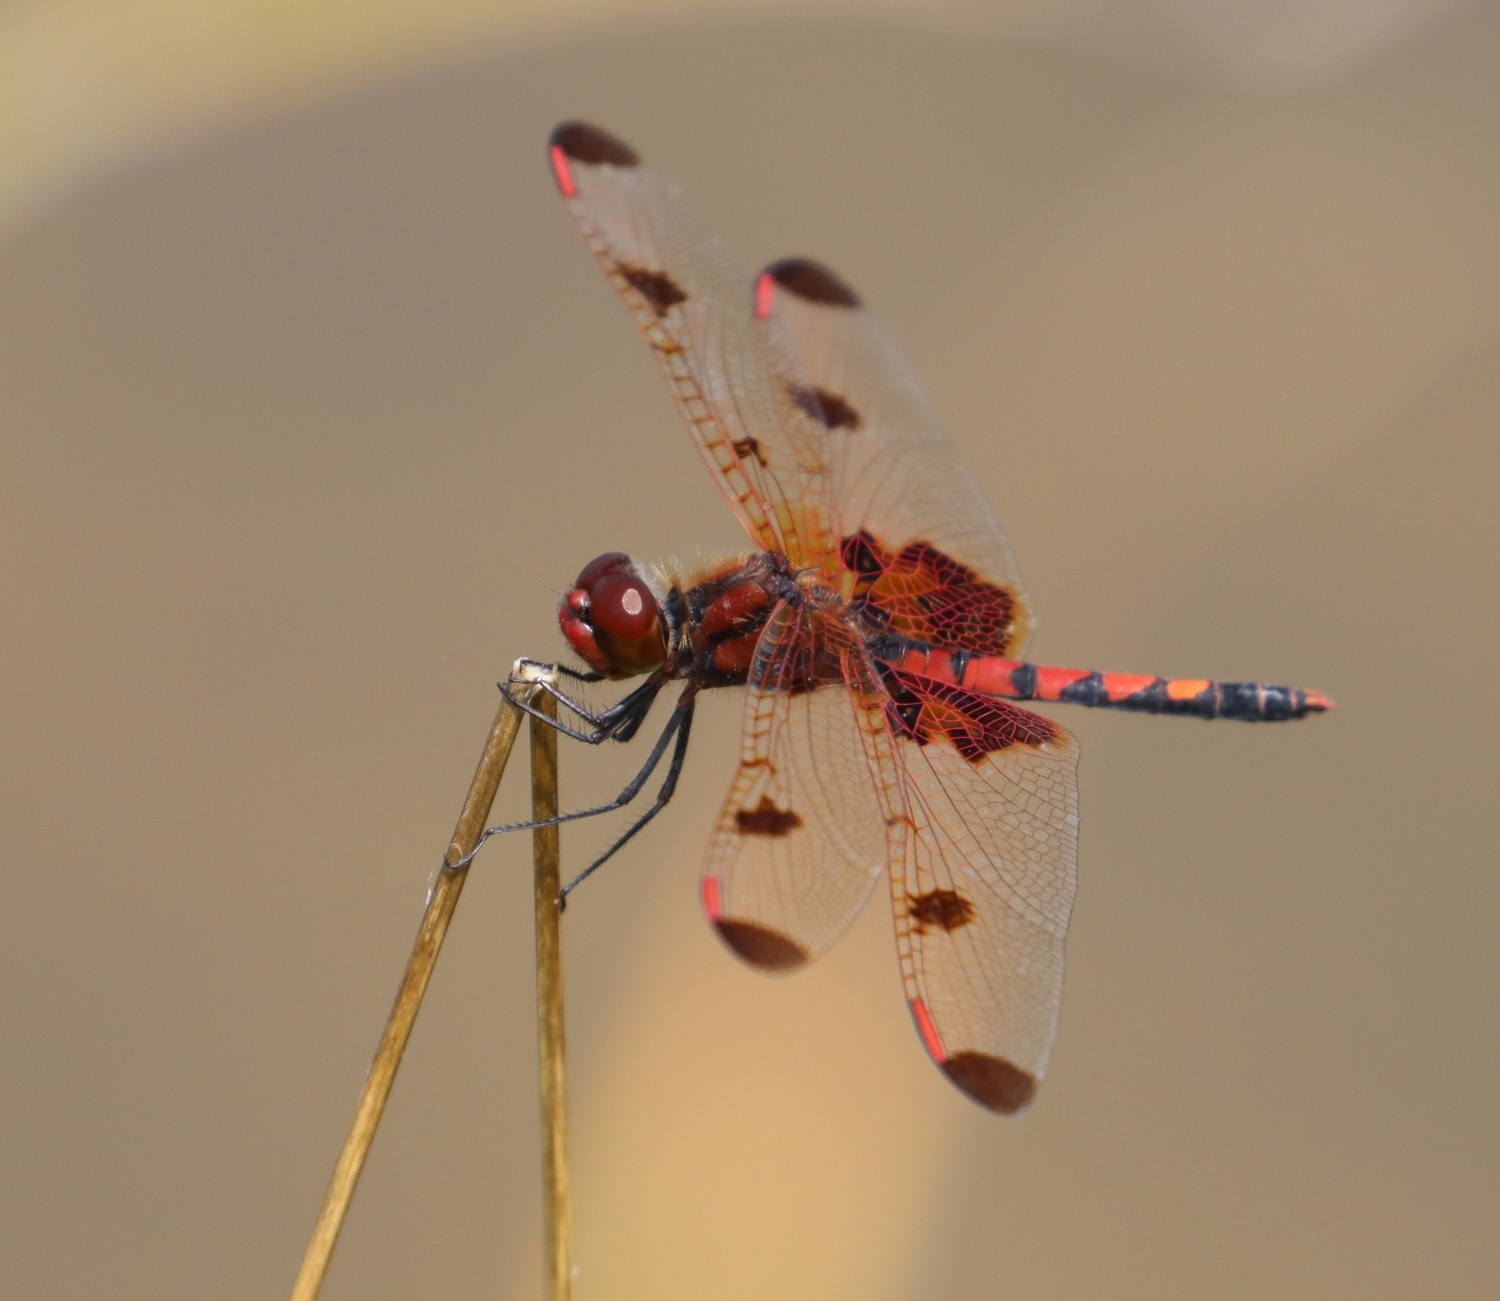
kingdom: Animalia
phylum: Arthropoda
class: Insecta
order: Odonata
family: Libellulidae
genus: Celithemis
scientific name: Celithemis elisa
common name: Calico pennant
